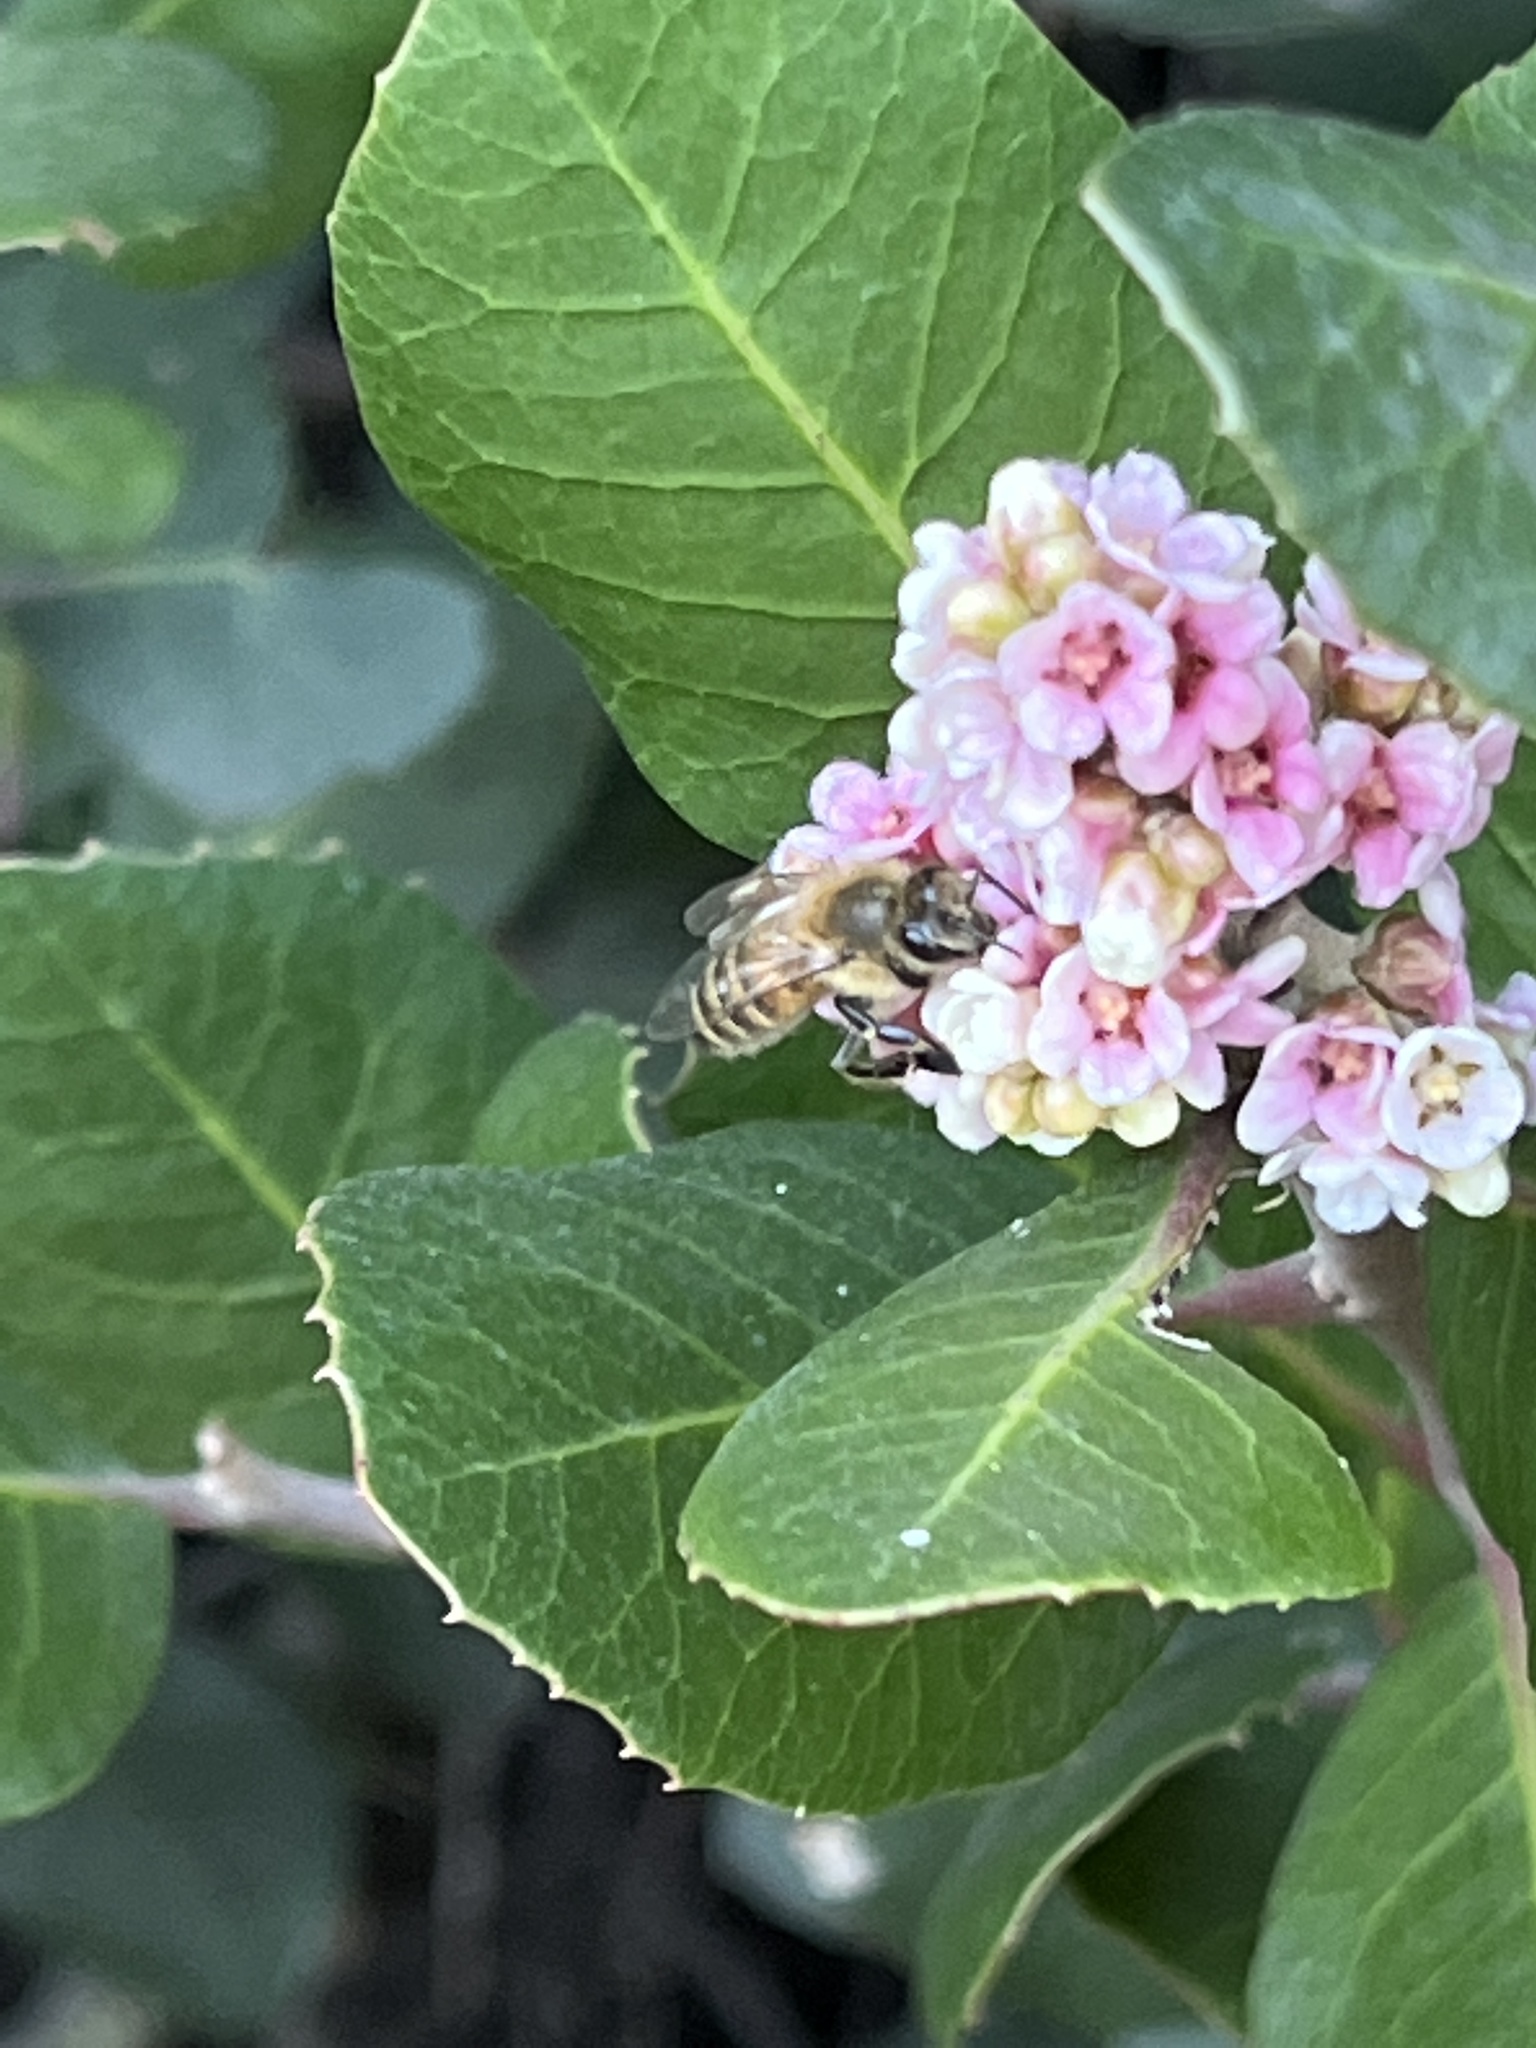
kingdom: Animalia
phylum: Arthropoda
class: Insecta
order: Hymenoptera
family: Apidae
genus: Apis
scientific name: Apis mellifera
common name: Honey bee
